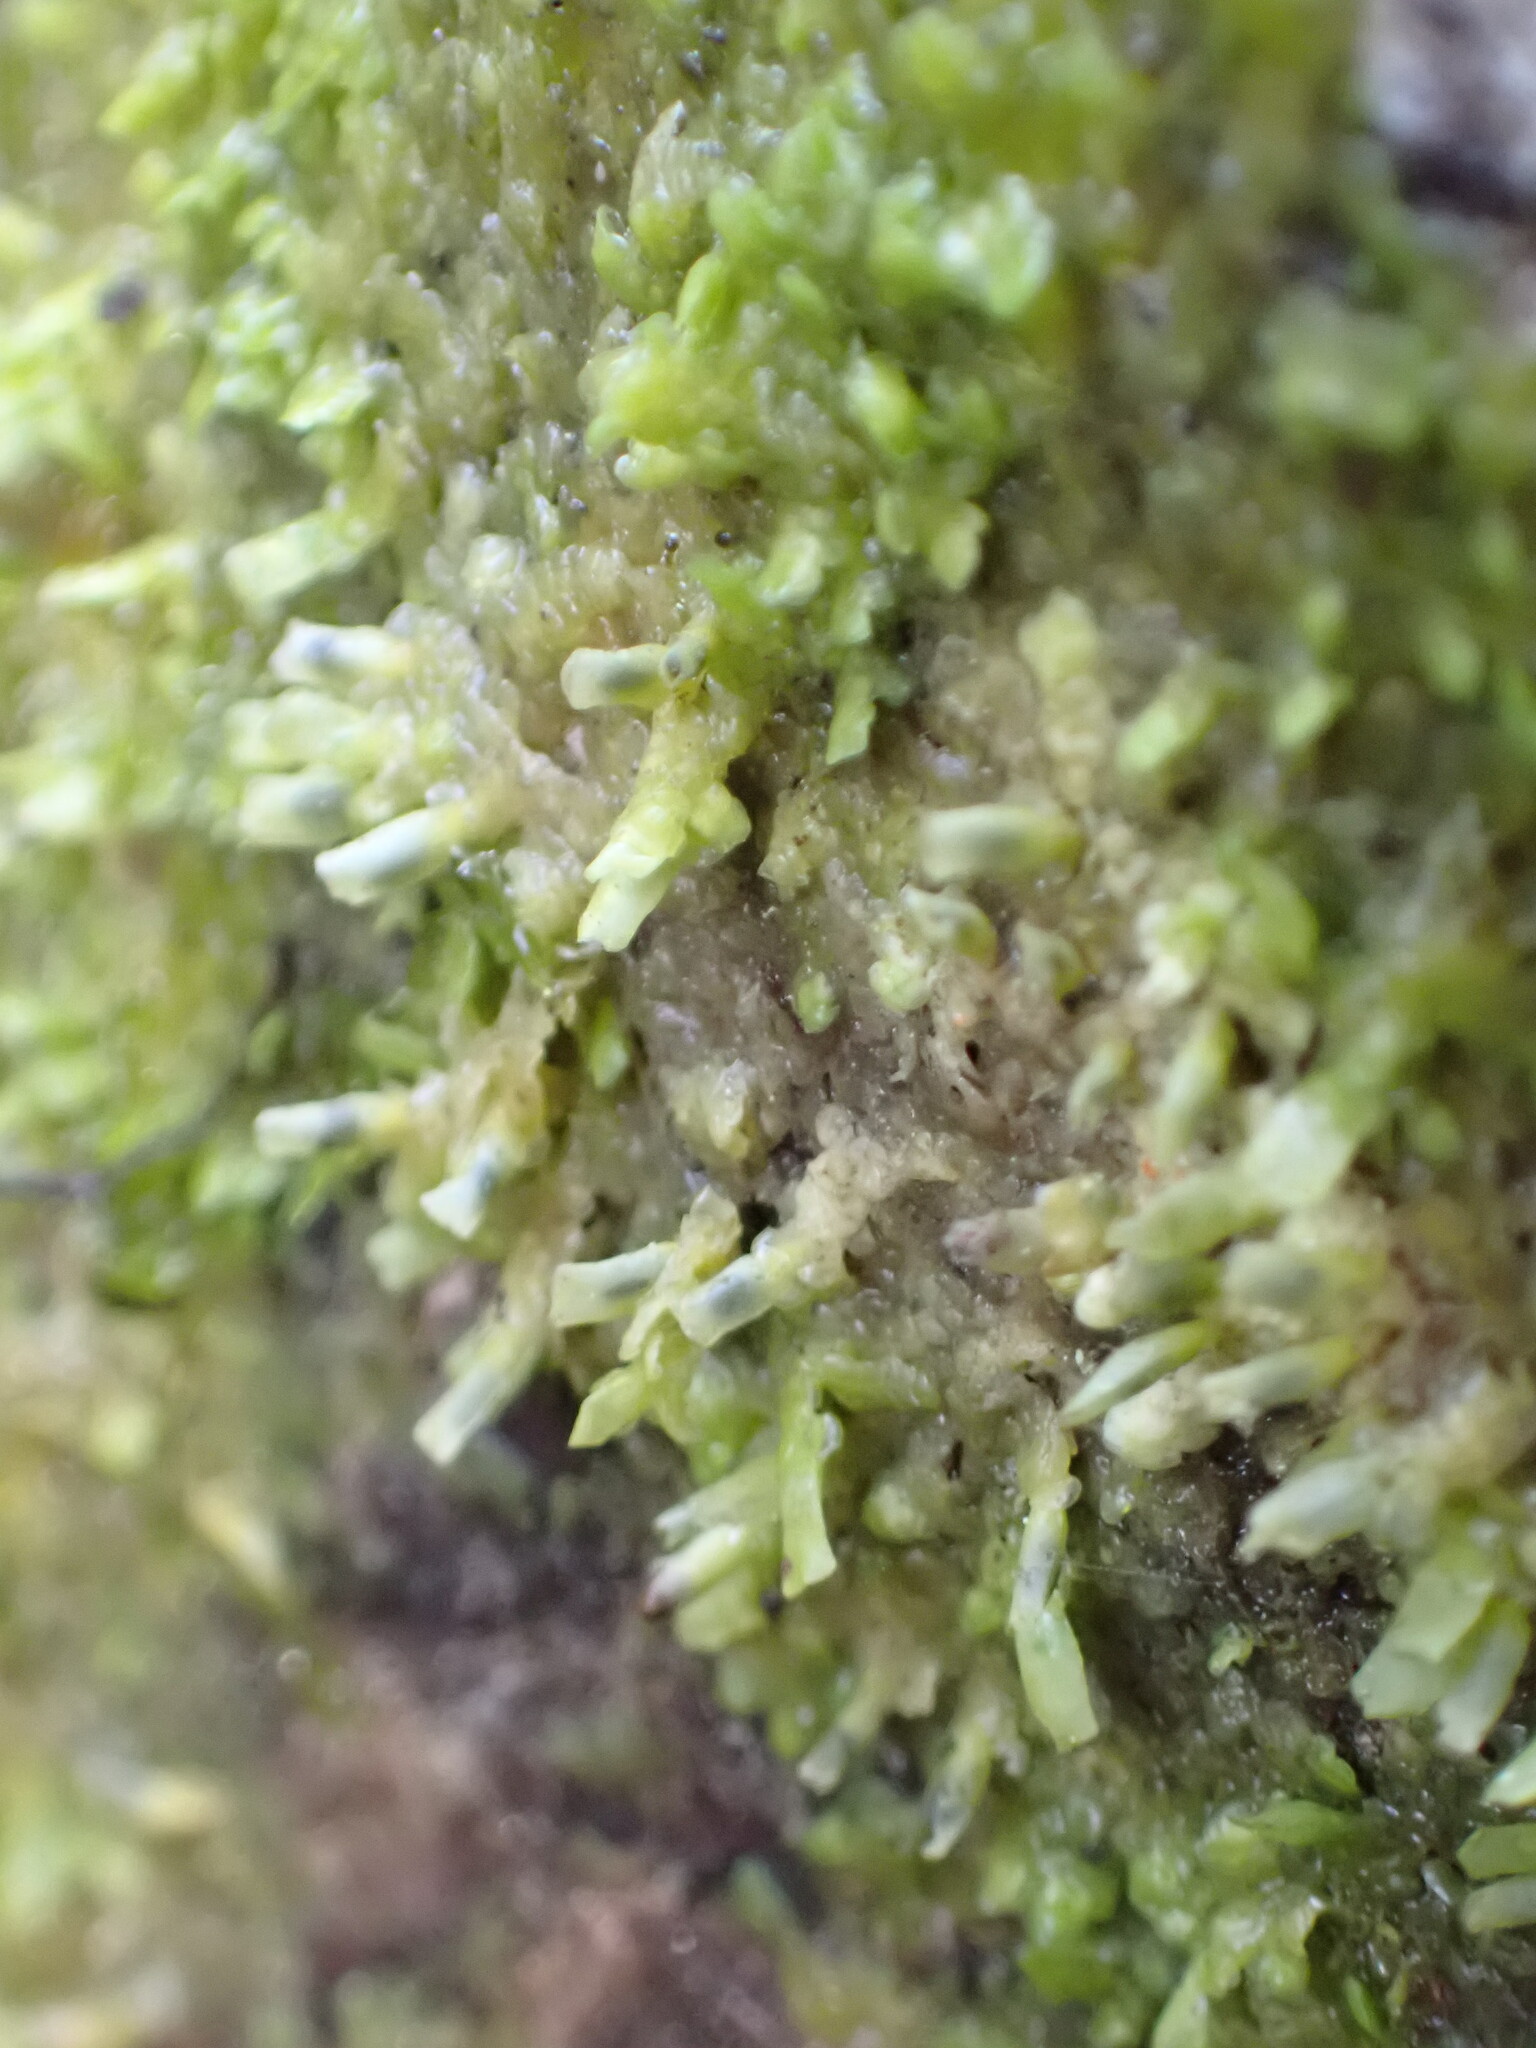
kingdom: Plantae
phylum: Marchantiophyta
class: Jungermanniopsida
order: Porellales
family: Radulaceae
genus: Radula
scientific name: Radula complanata
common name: Flat-leaved scalewort
